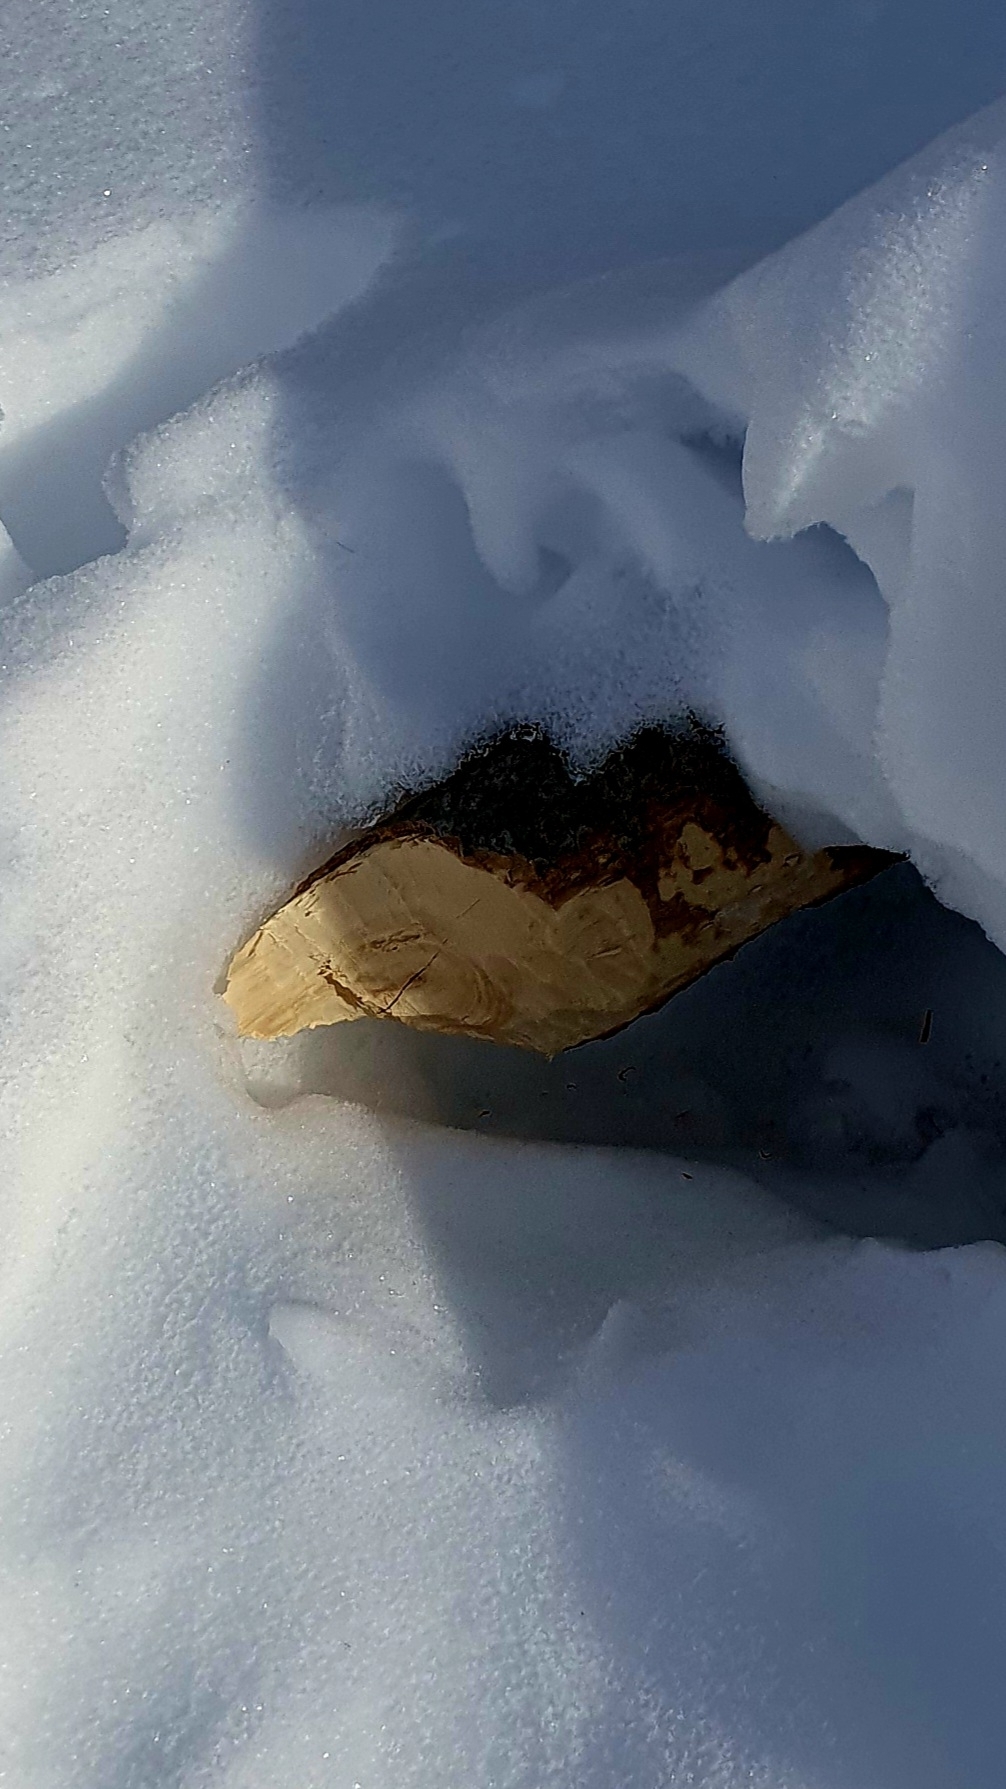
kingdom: Animalia
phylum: Chordata
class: Mammalia
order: Rodentia
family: Castoridae
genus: Castor
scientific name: Castor fiber
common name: Eurasian beaver
